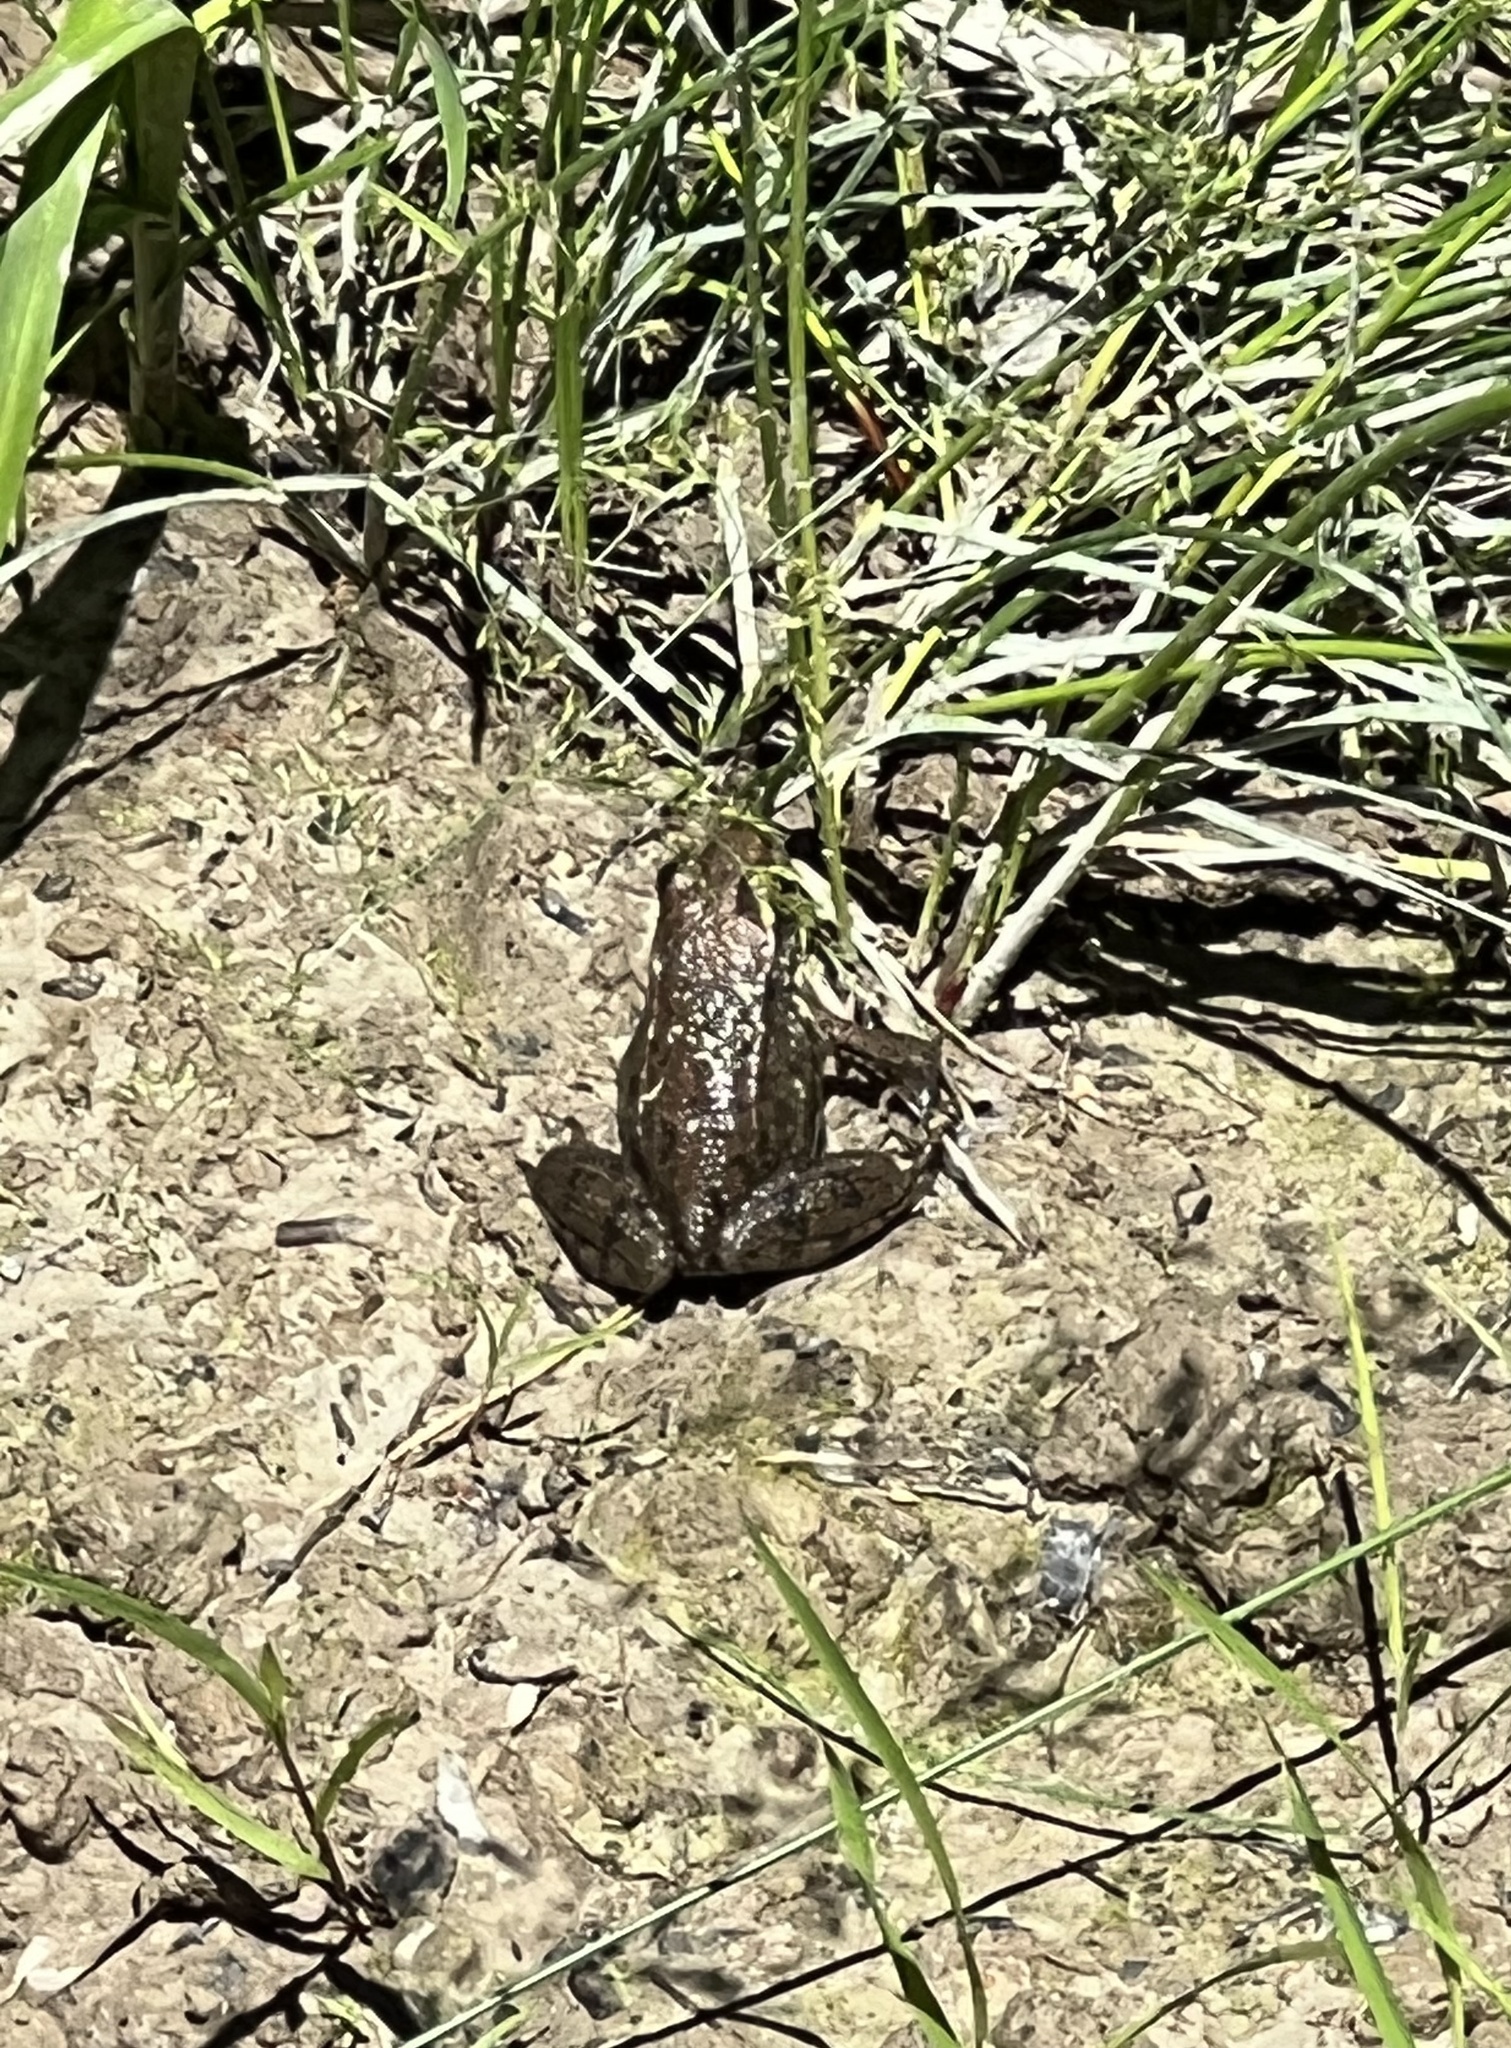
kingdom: Animalia
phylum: Chordata
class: Amphibia
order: Anura
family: Ranidae
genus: Lithobates
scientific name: Lithobates clamitans
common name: Green frog
